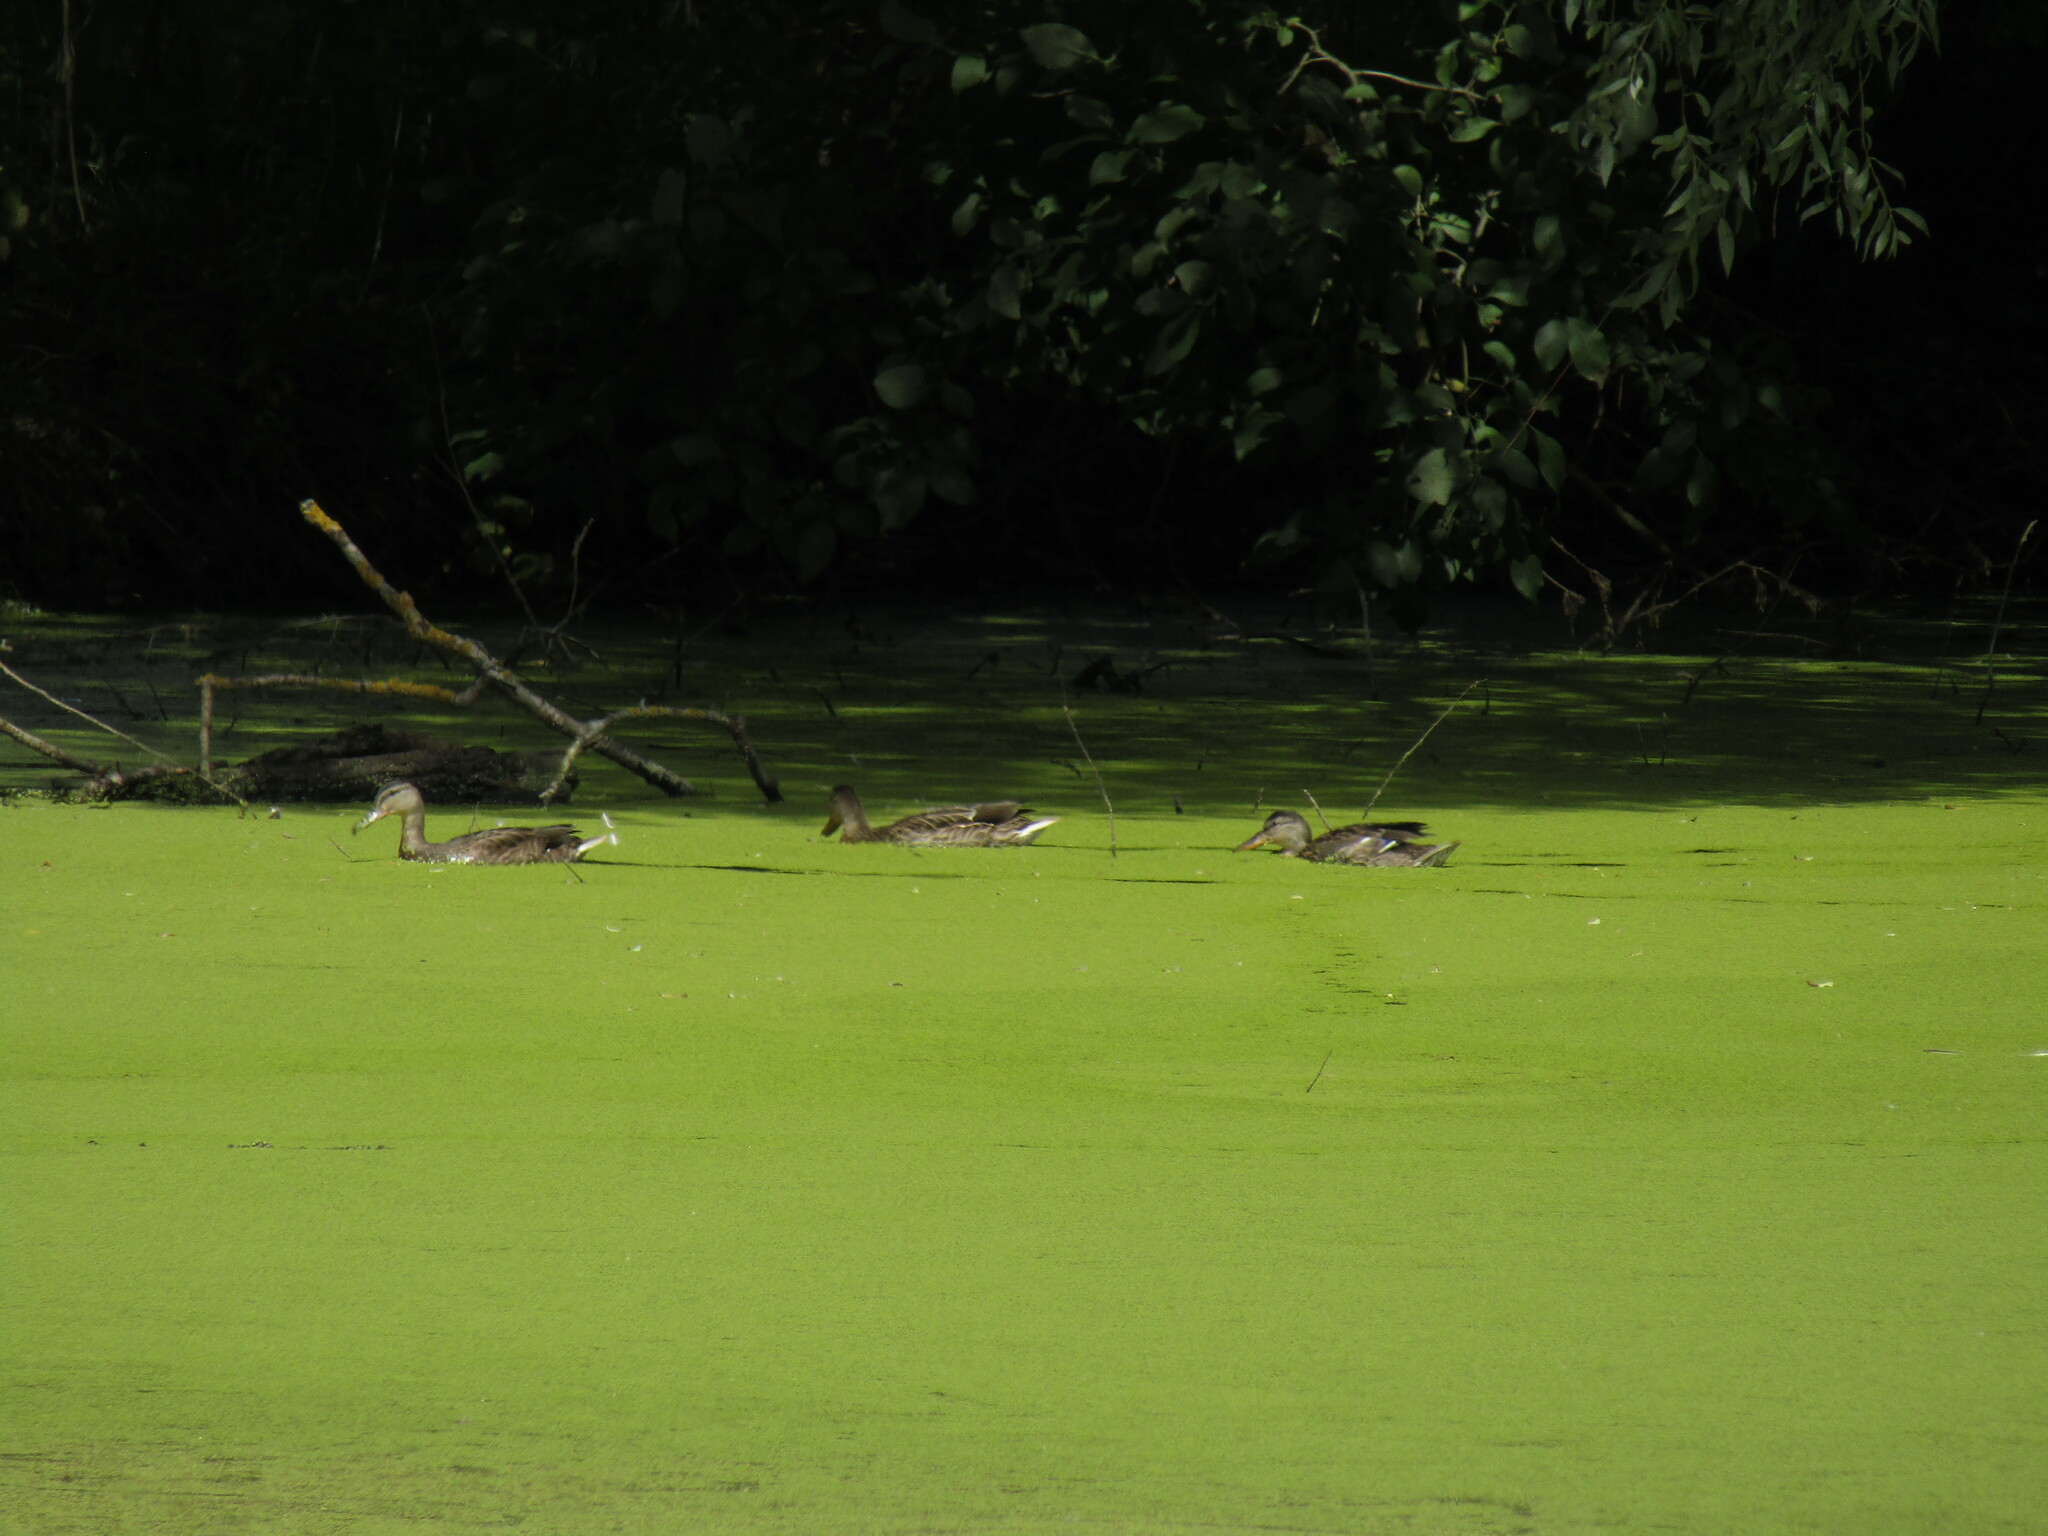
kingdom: Animalia
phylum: Chordata
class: Aves
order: Anseriformes
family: Anatidae
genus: Anas
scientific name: Anas platyrhynchos
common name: Mallard
